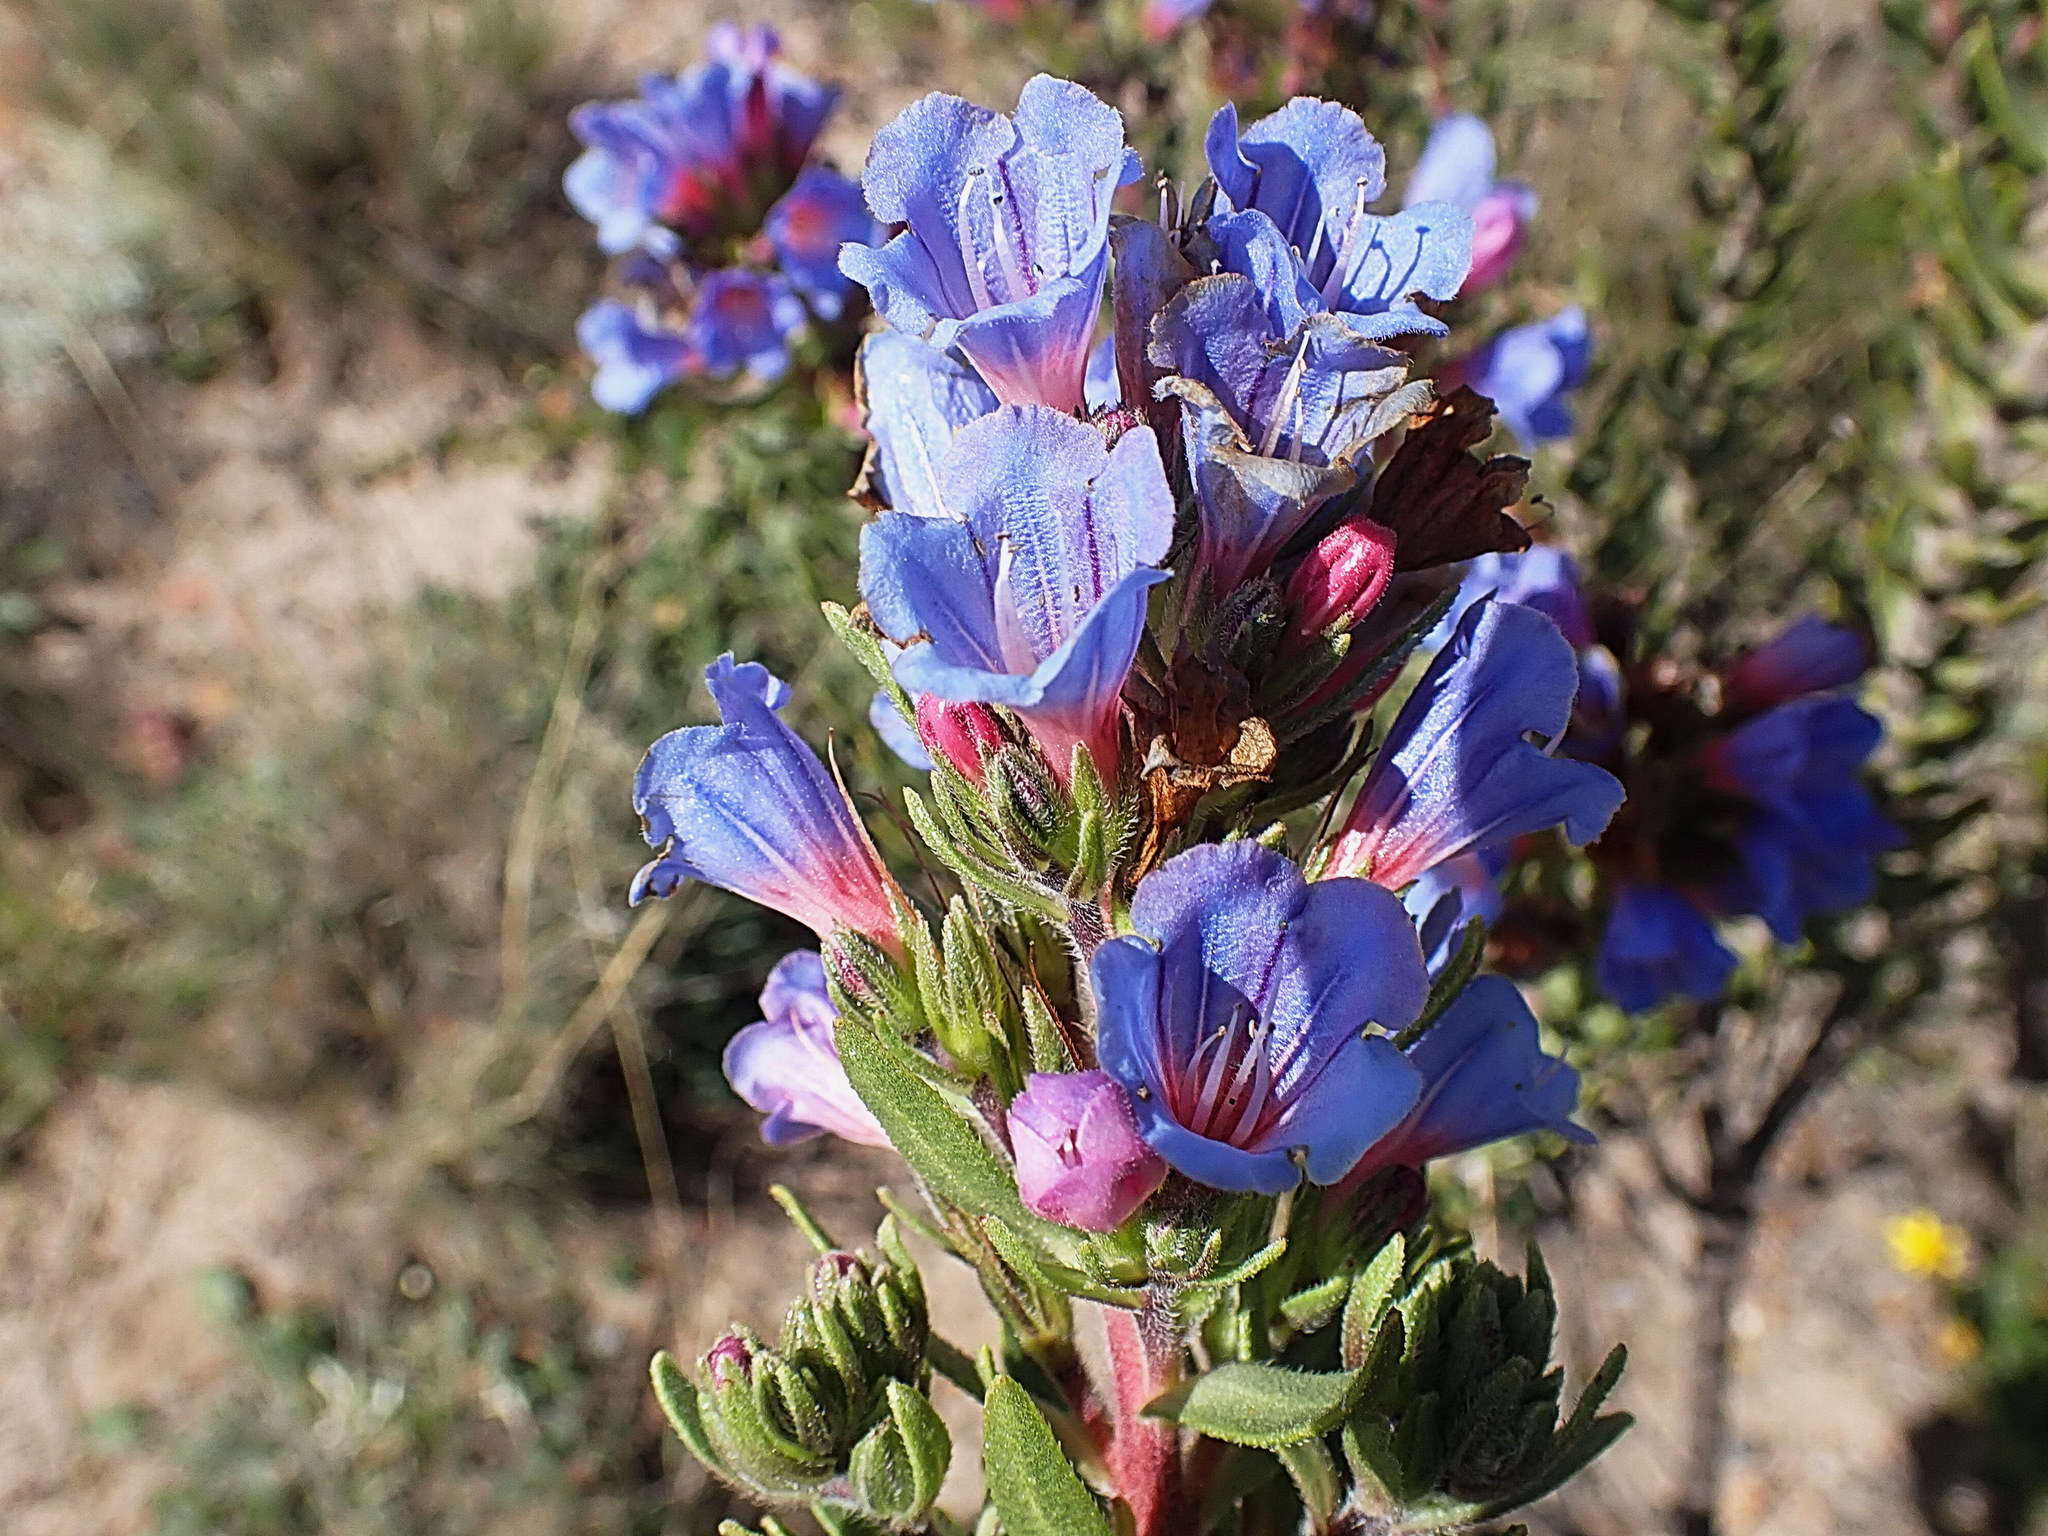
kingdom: Plantae
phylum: Tracheophyta
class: Magnoliopsida
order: Boraginales
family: Boraginaceae
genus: Lobostemon
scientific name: Lobostemon fruticosus
